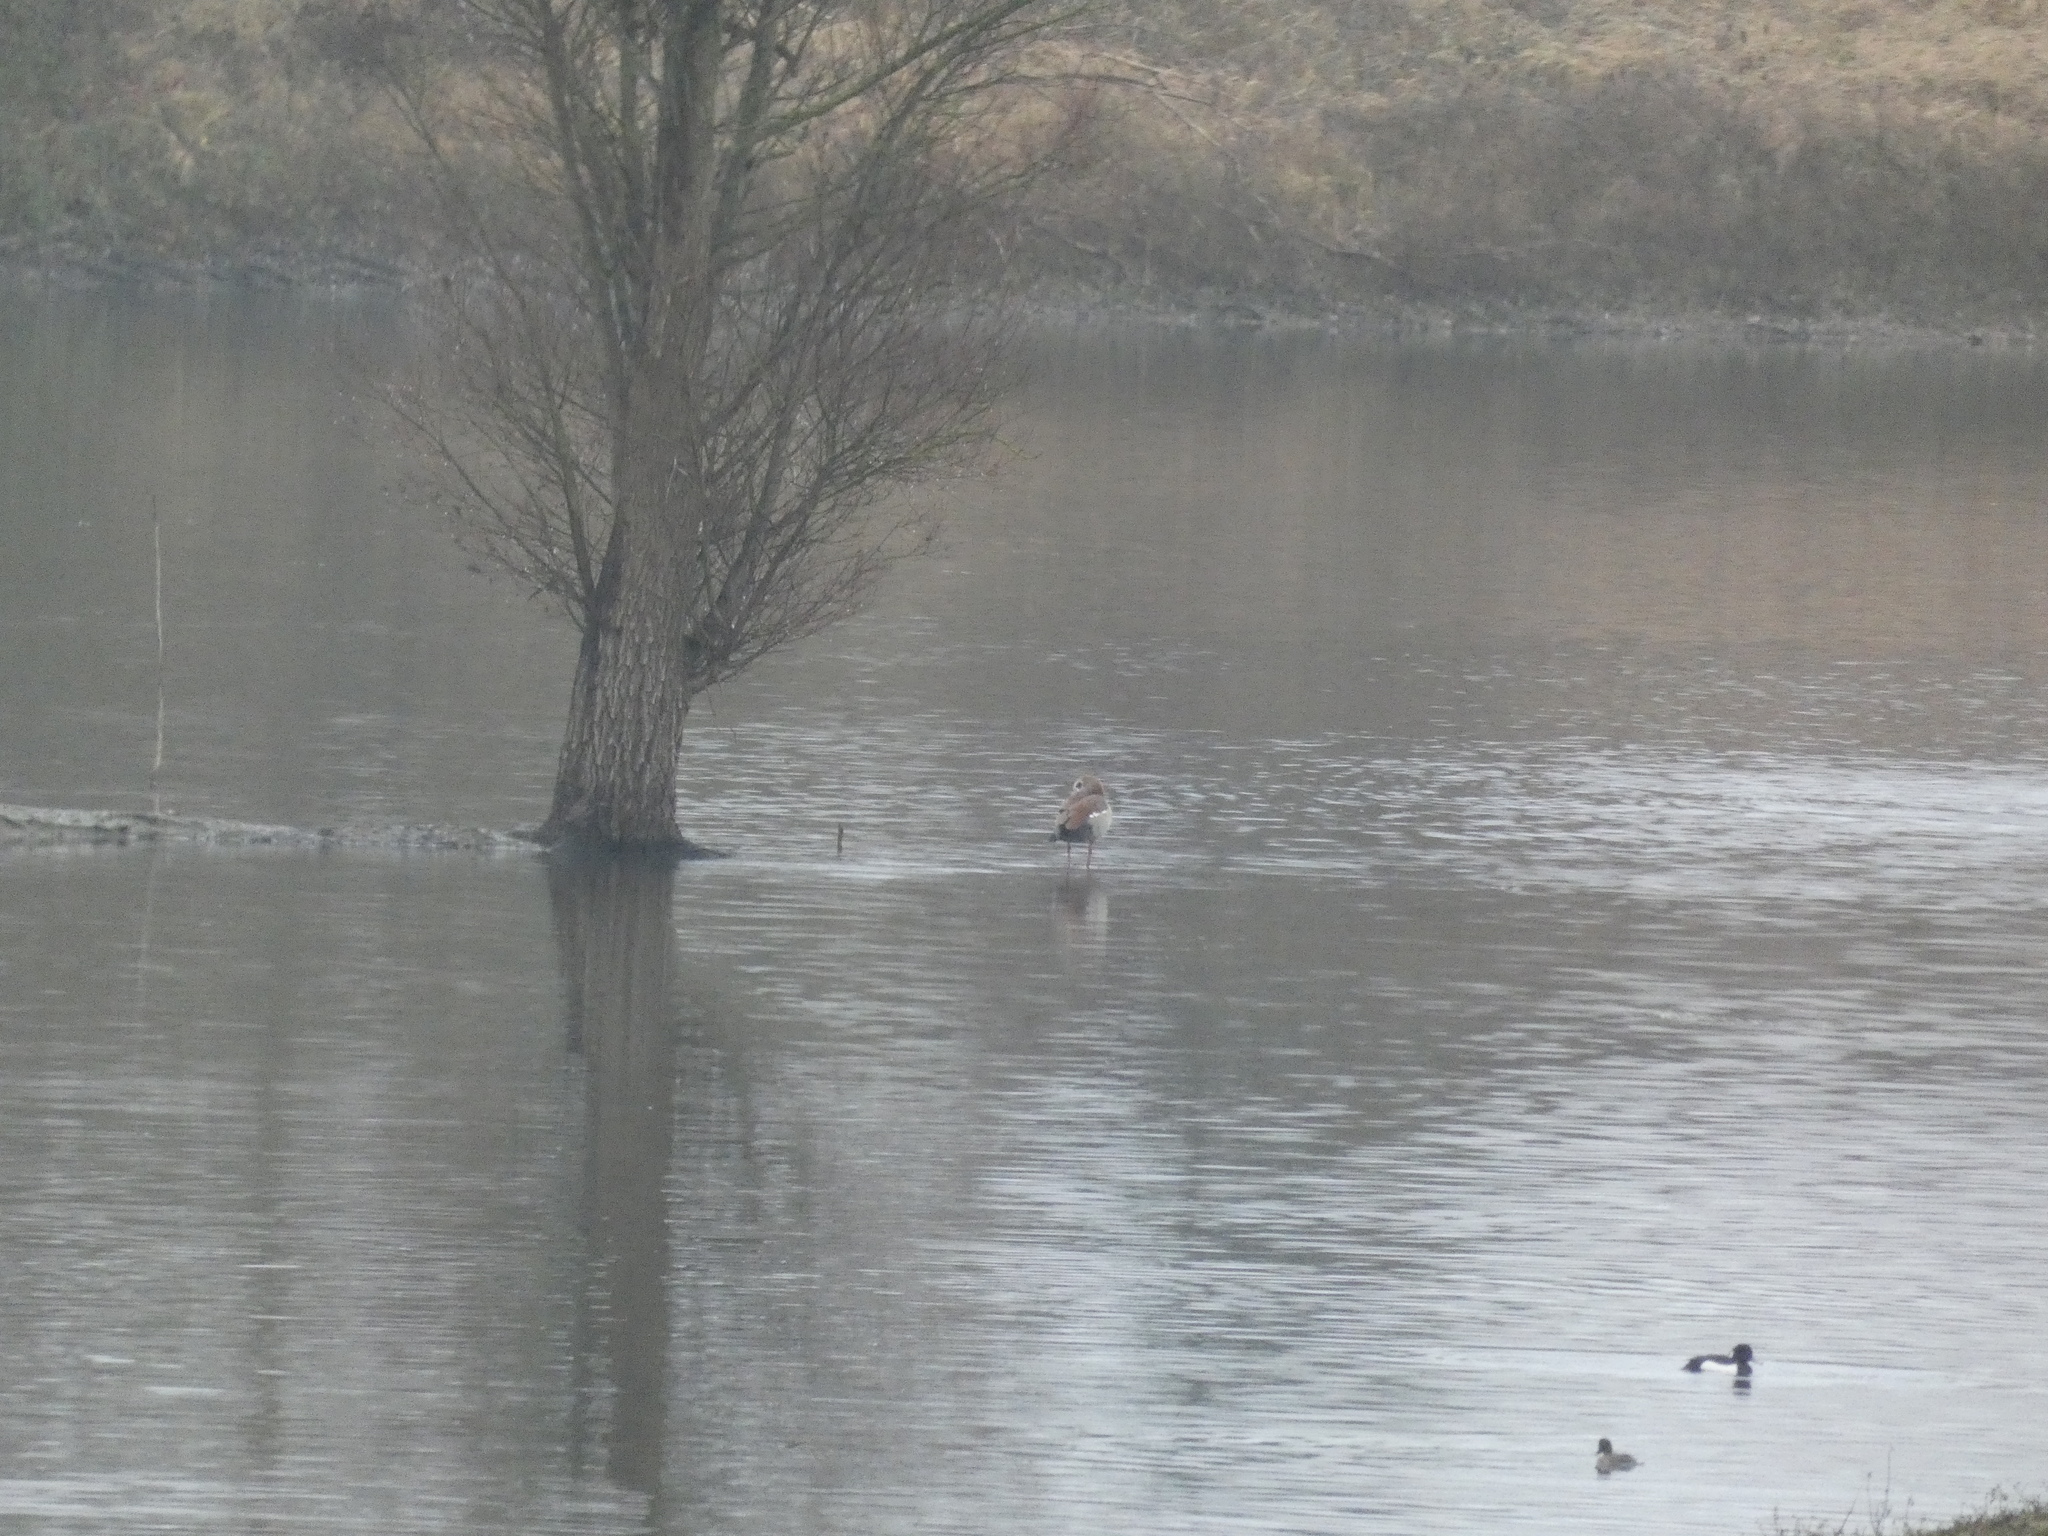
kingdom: Animalia
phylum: Chordata
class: Aves
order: Anseriformes
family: Anatidae
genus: Alopochen
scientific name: Alopochen aegyptiaca
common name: Egyptian goose
